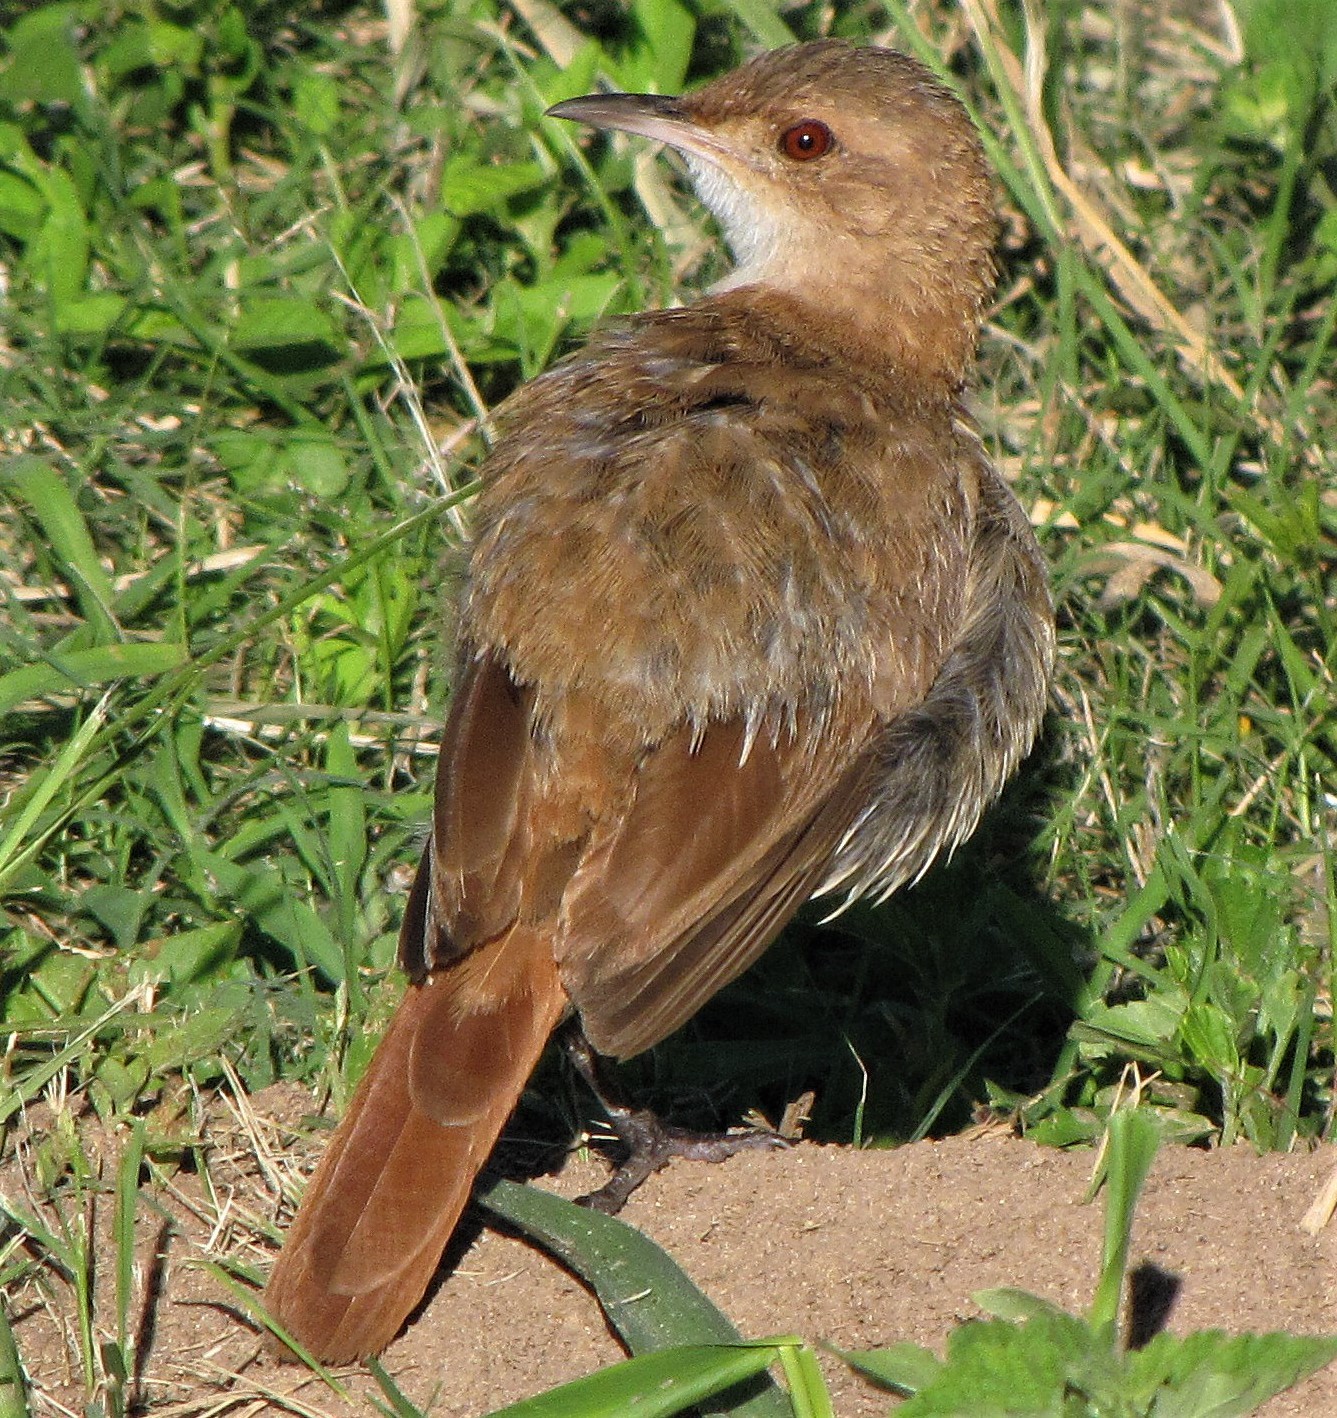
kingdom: Animalia
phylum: Chordata
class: Aves
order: Passeriformes
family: Furnariidae
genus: Furnarius
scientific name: Furnarius rufus
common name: Rufous hornero
